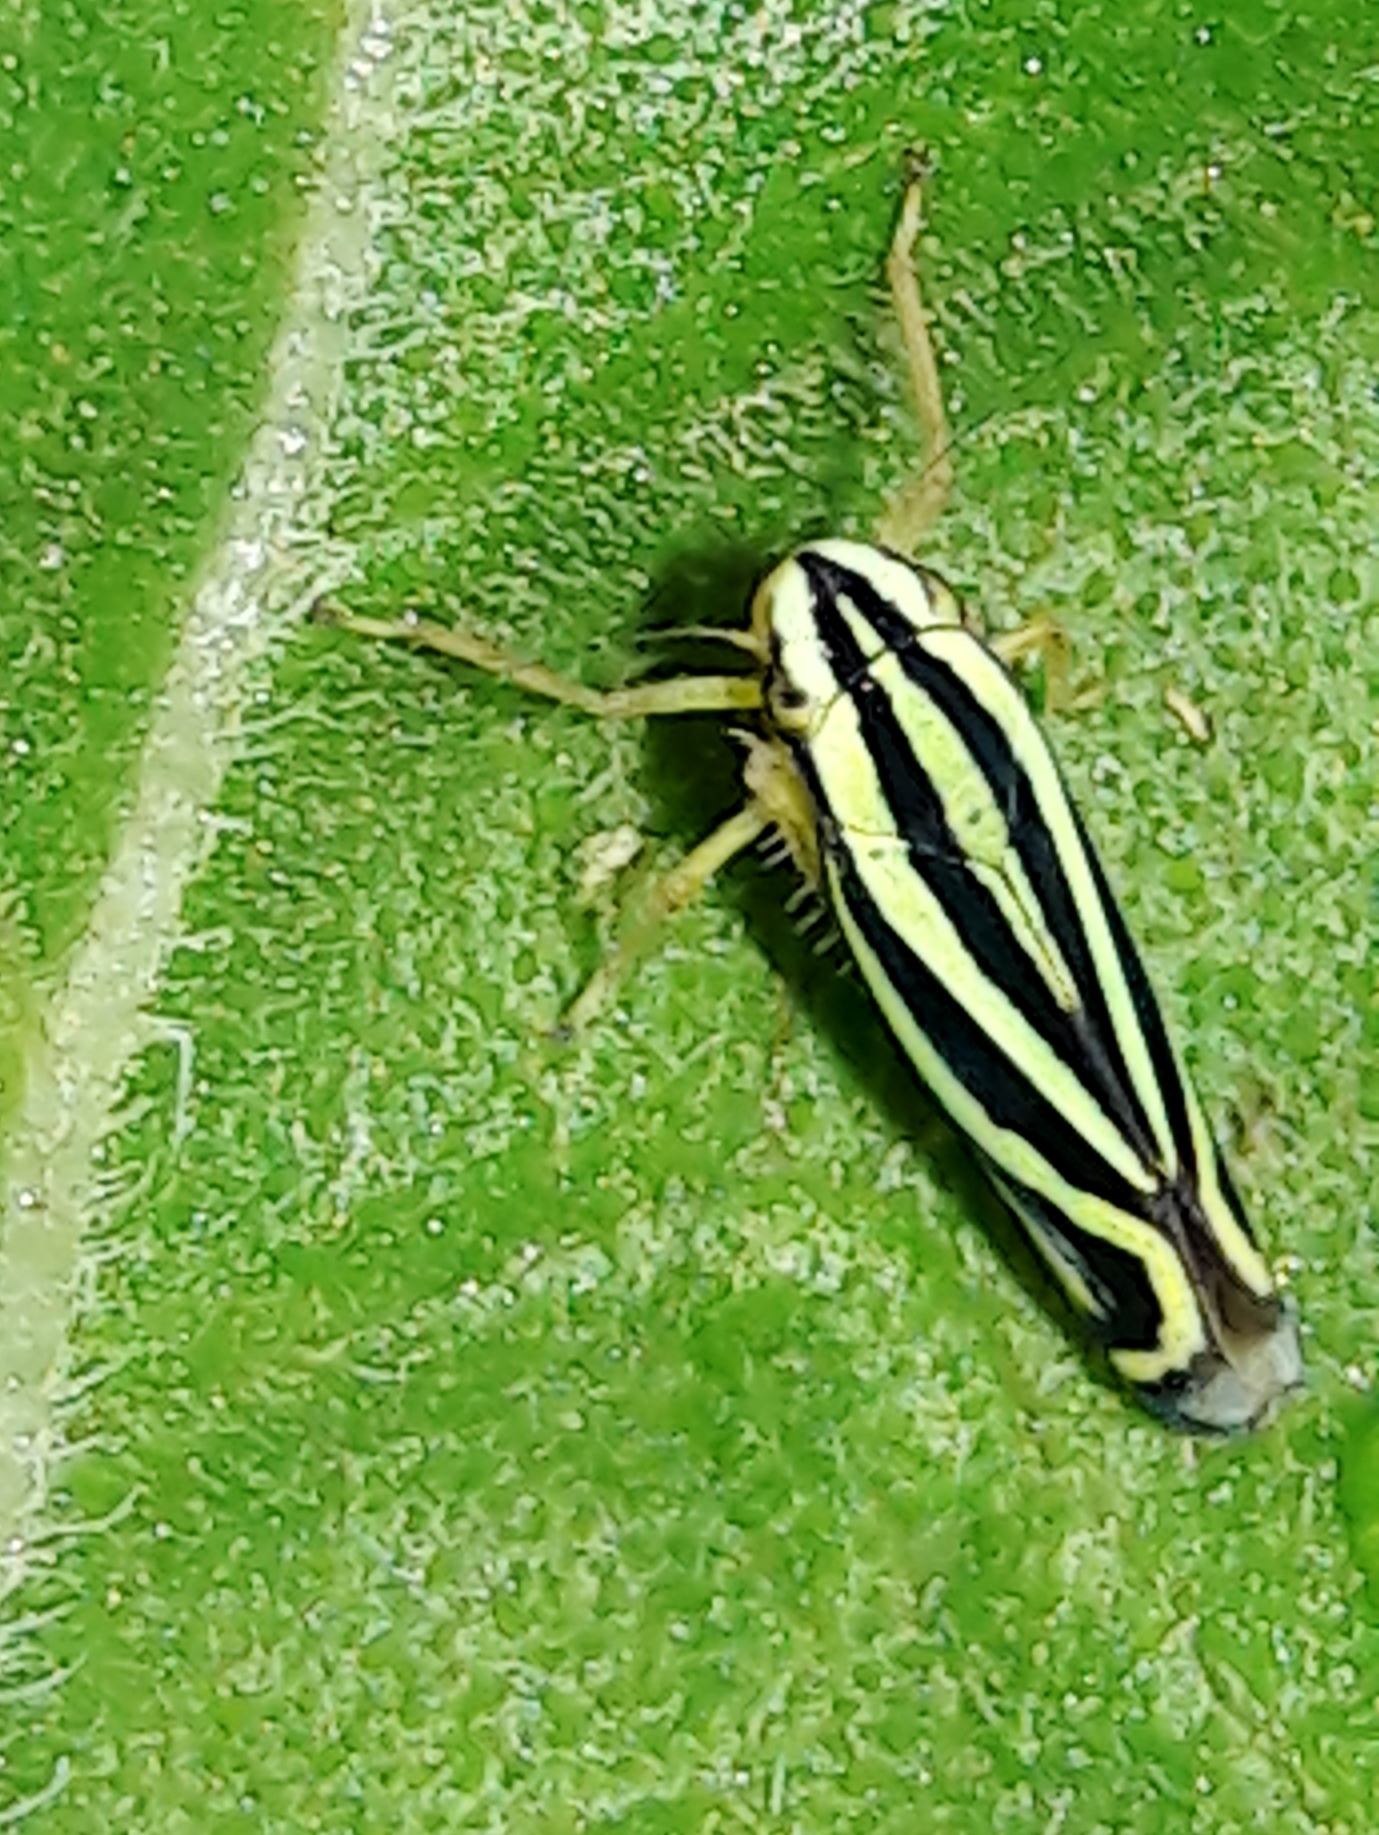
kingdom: Animalia
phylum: Arthropoda
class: Insecta
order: Hemiptera
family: Cicadellidae
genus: Sibovia
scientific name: Sibovia sagata
